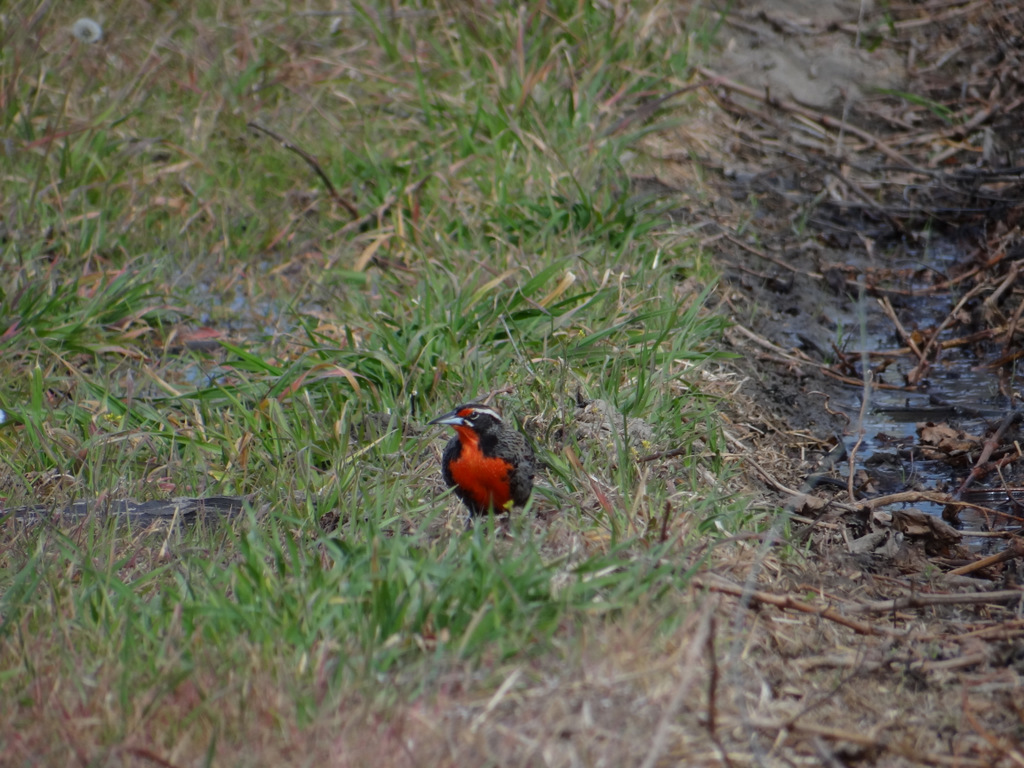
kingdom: Animalia
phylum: Chordata
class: Aves
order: Passeriformes
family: Icteridae
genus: Sturnella
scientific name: Sturnella loyca
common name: Long-tailed meadowlark
